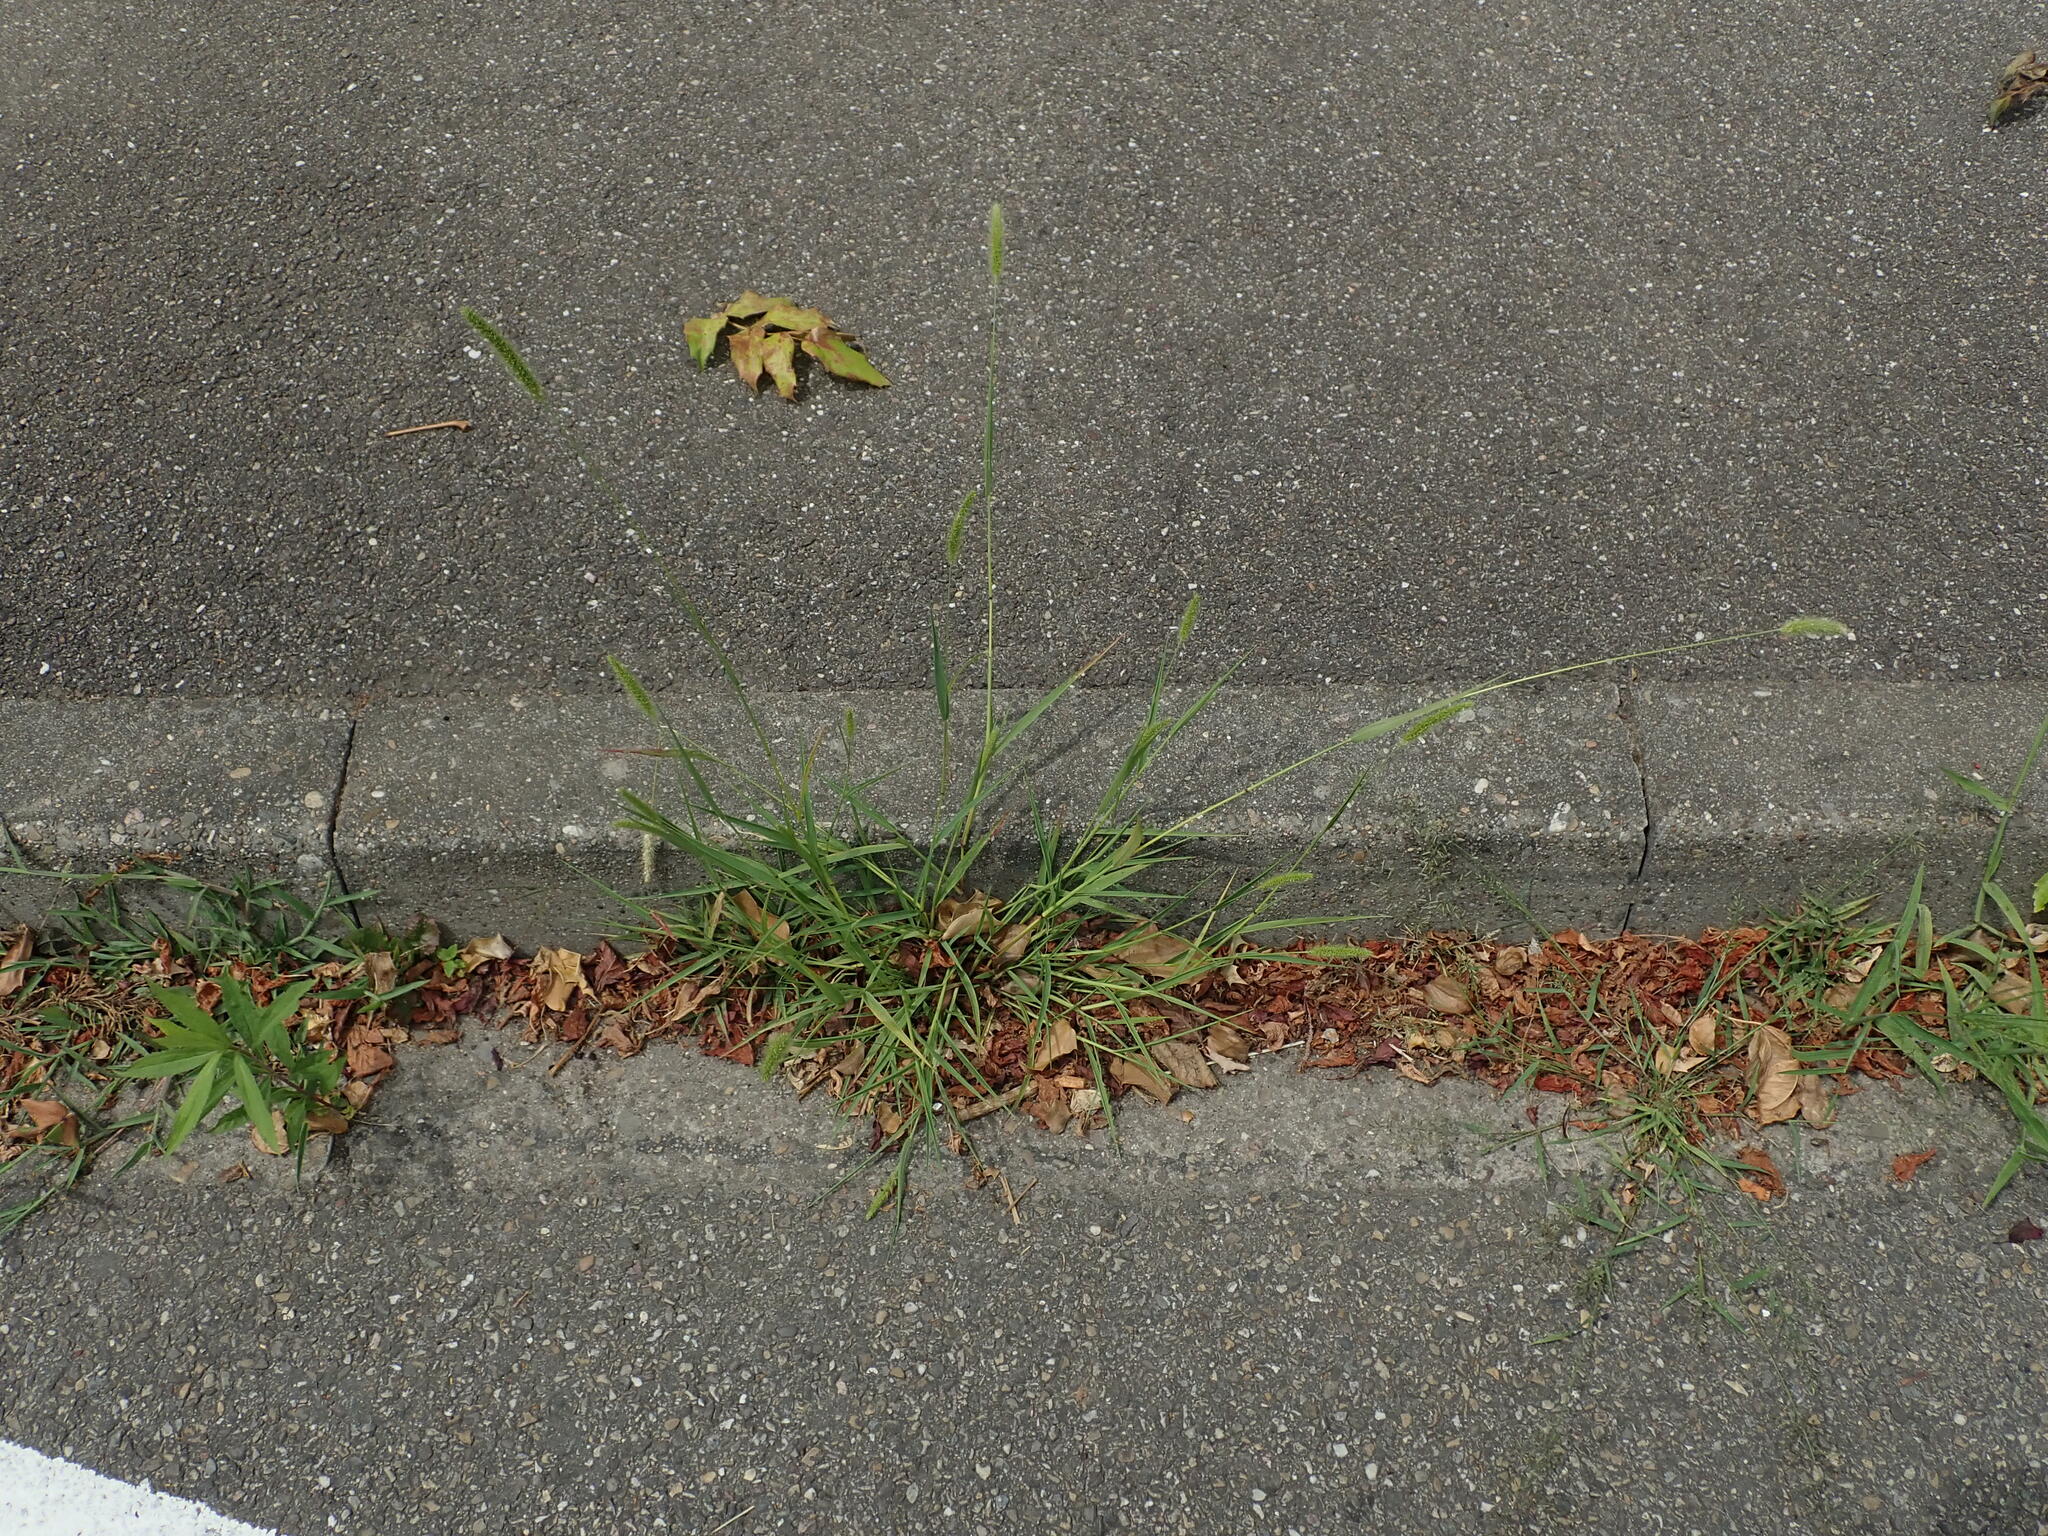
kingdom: Plantae
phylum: Tracheophyta
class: Liliopsida
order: Poales
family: Poaceae
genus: Setaria
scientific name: Setaria viridis
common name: Green bristlegrass
